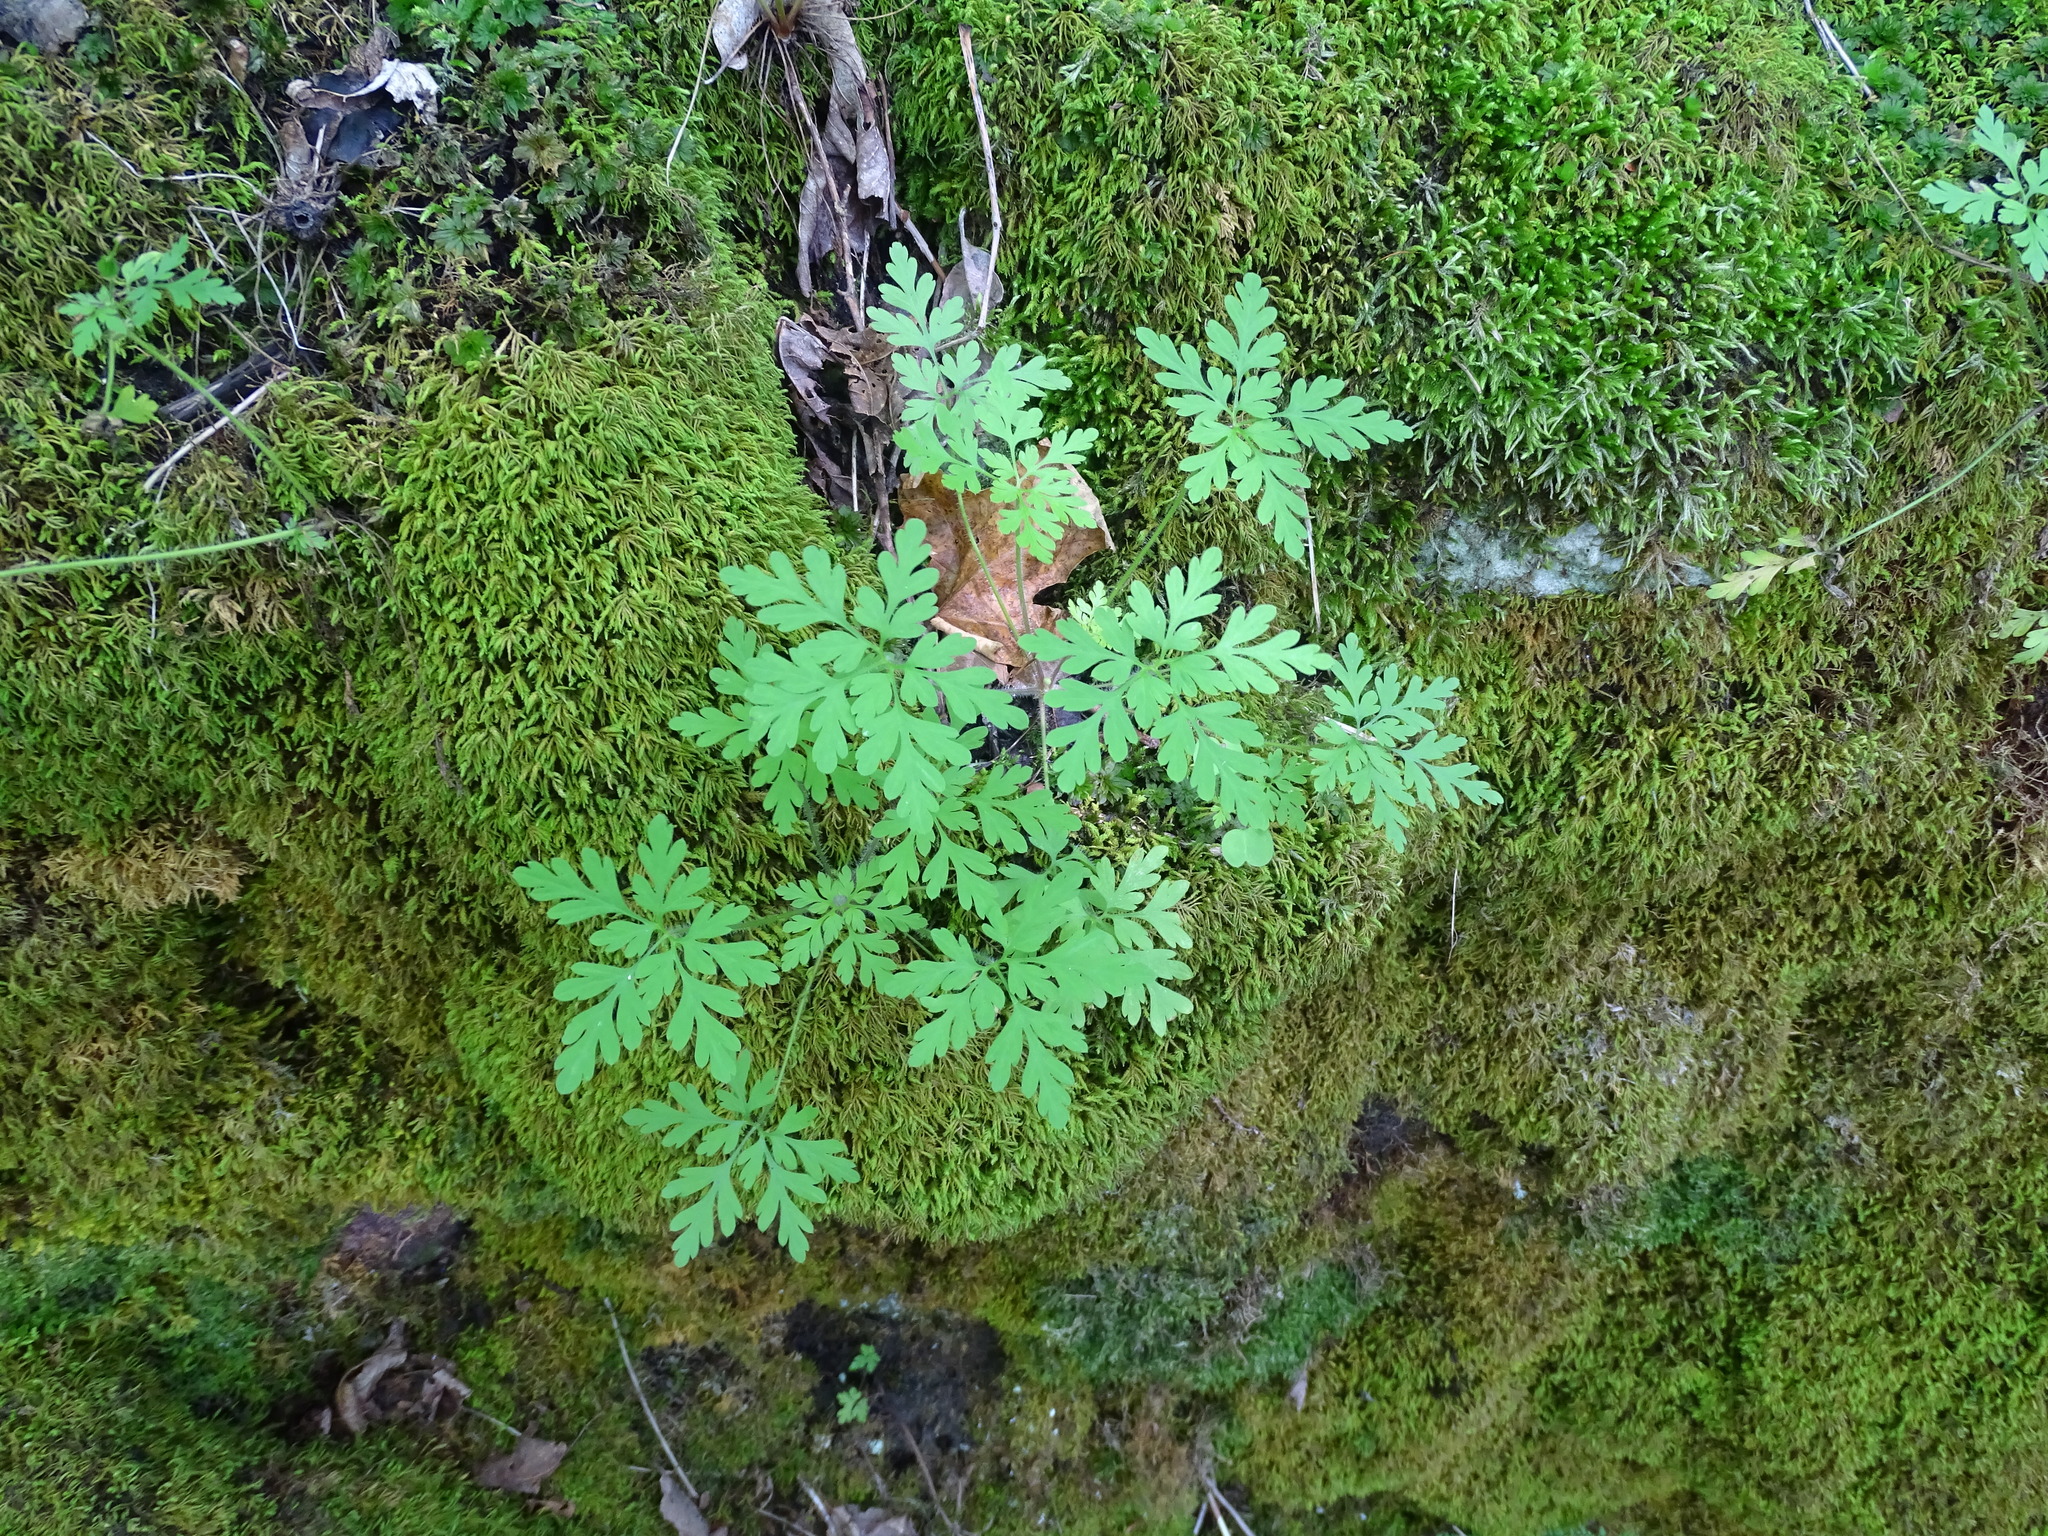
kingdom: Plantae
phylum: Tracheophyta
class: Magnoliopsida
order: Geraniales
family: Geraniaceae
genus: Geranium
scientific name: Geranium robertianum
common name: Herb-robert
